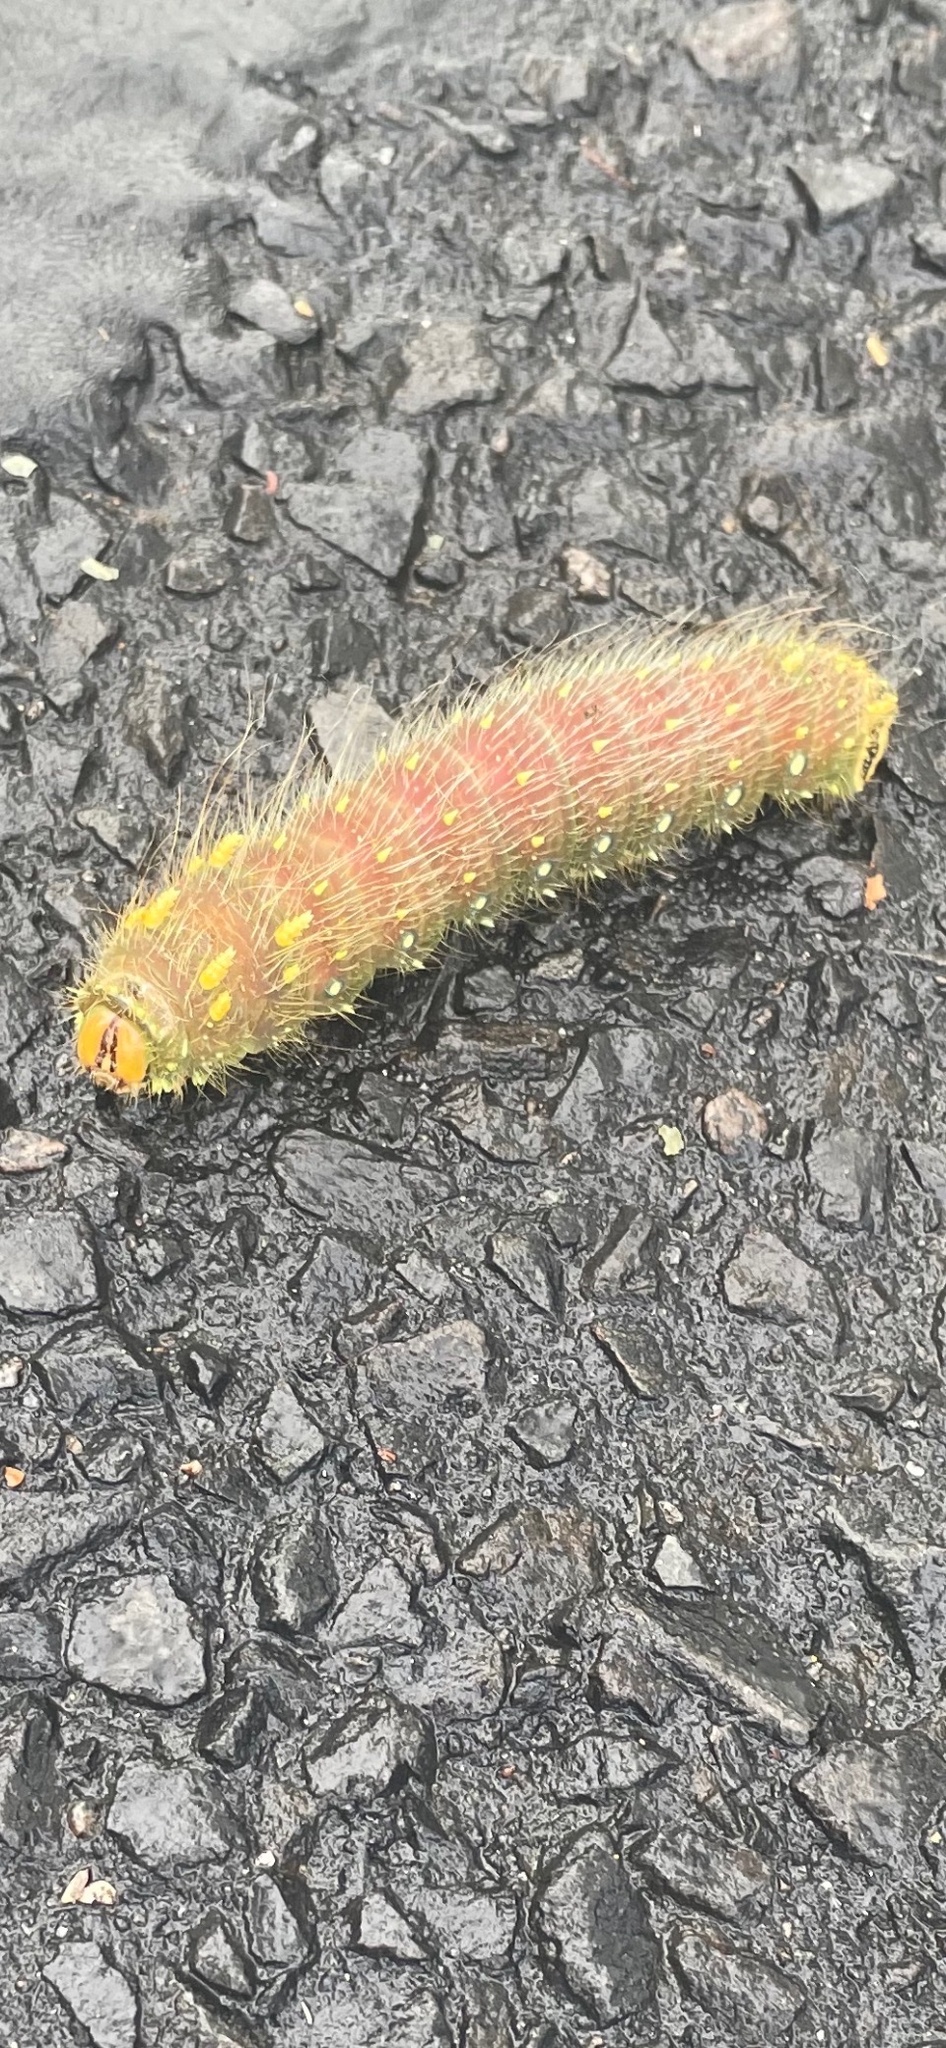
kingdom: Animalia
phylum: Arthropoda
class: Insecta
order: Lepidoptera
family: Saturniidae
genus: Eacles
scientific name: Eacles imperialis
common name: Imperial moth
